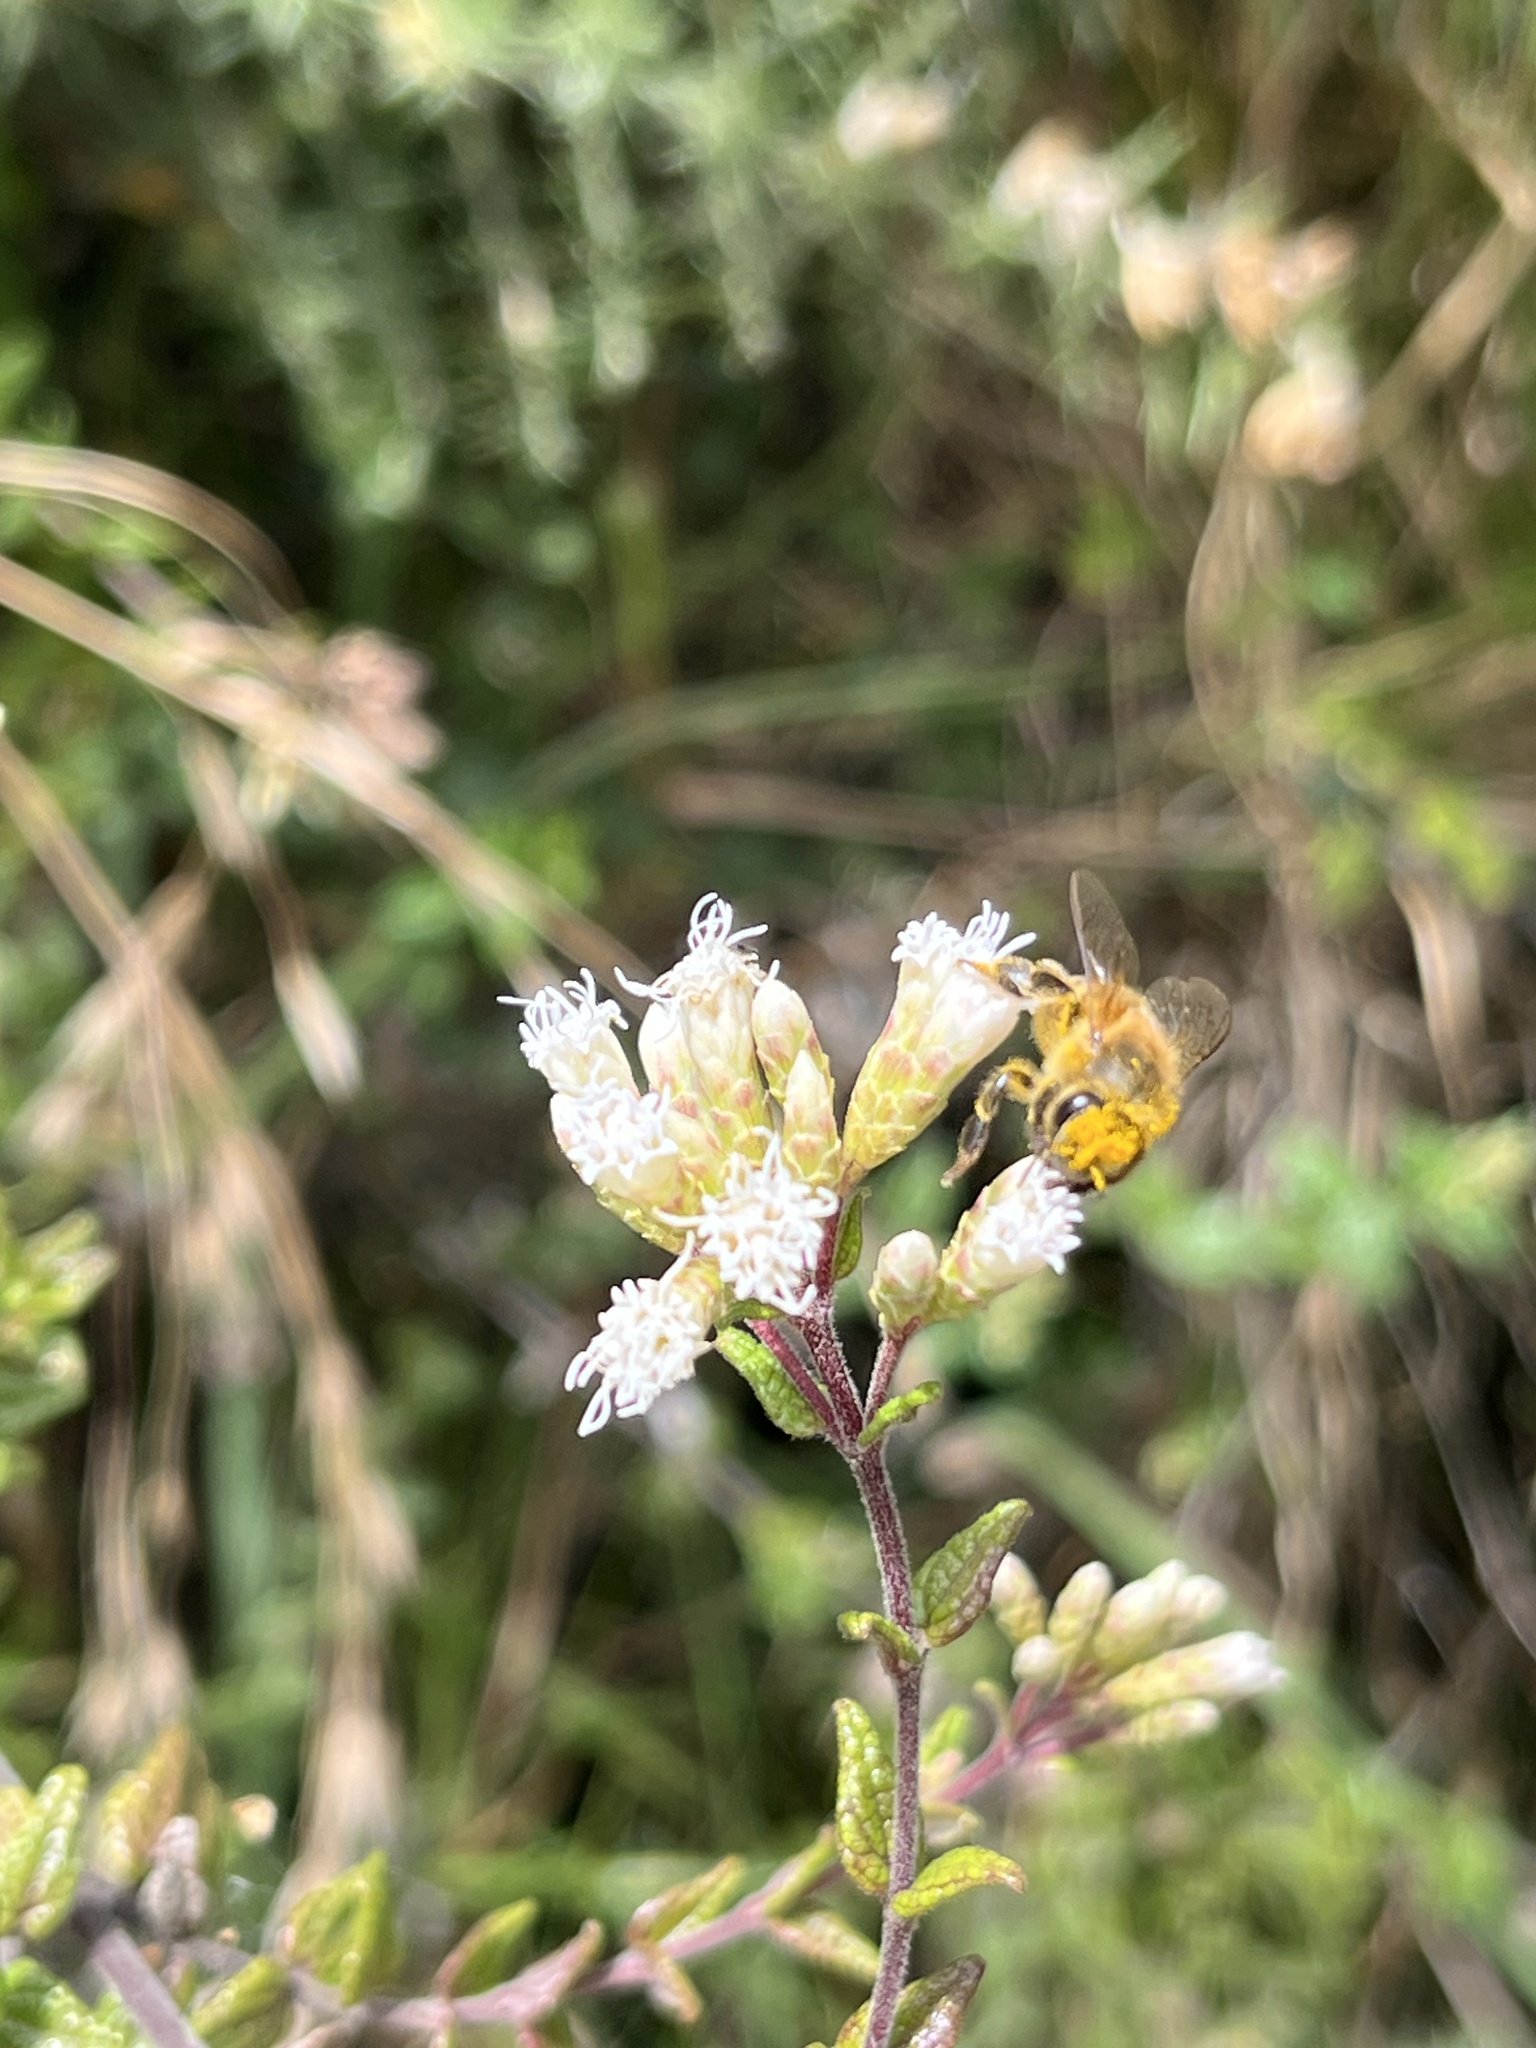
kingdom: Animalia
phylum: Arthropoda
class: Insecta
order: Hymenoptera
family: Apidae
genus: Apis
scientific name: Apis mellifera
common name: Honey bee
